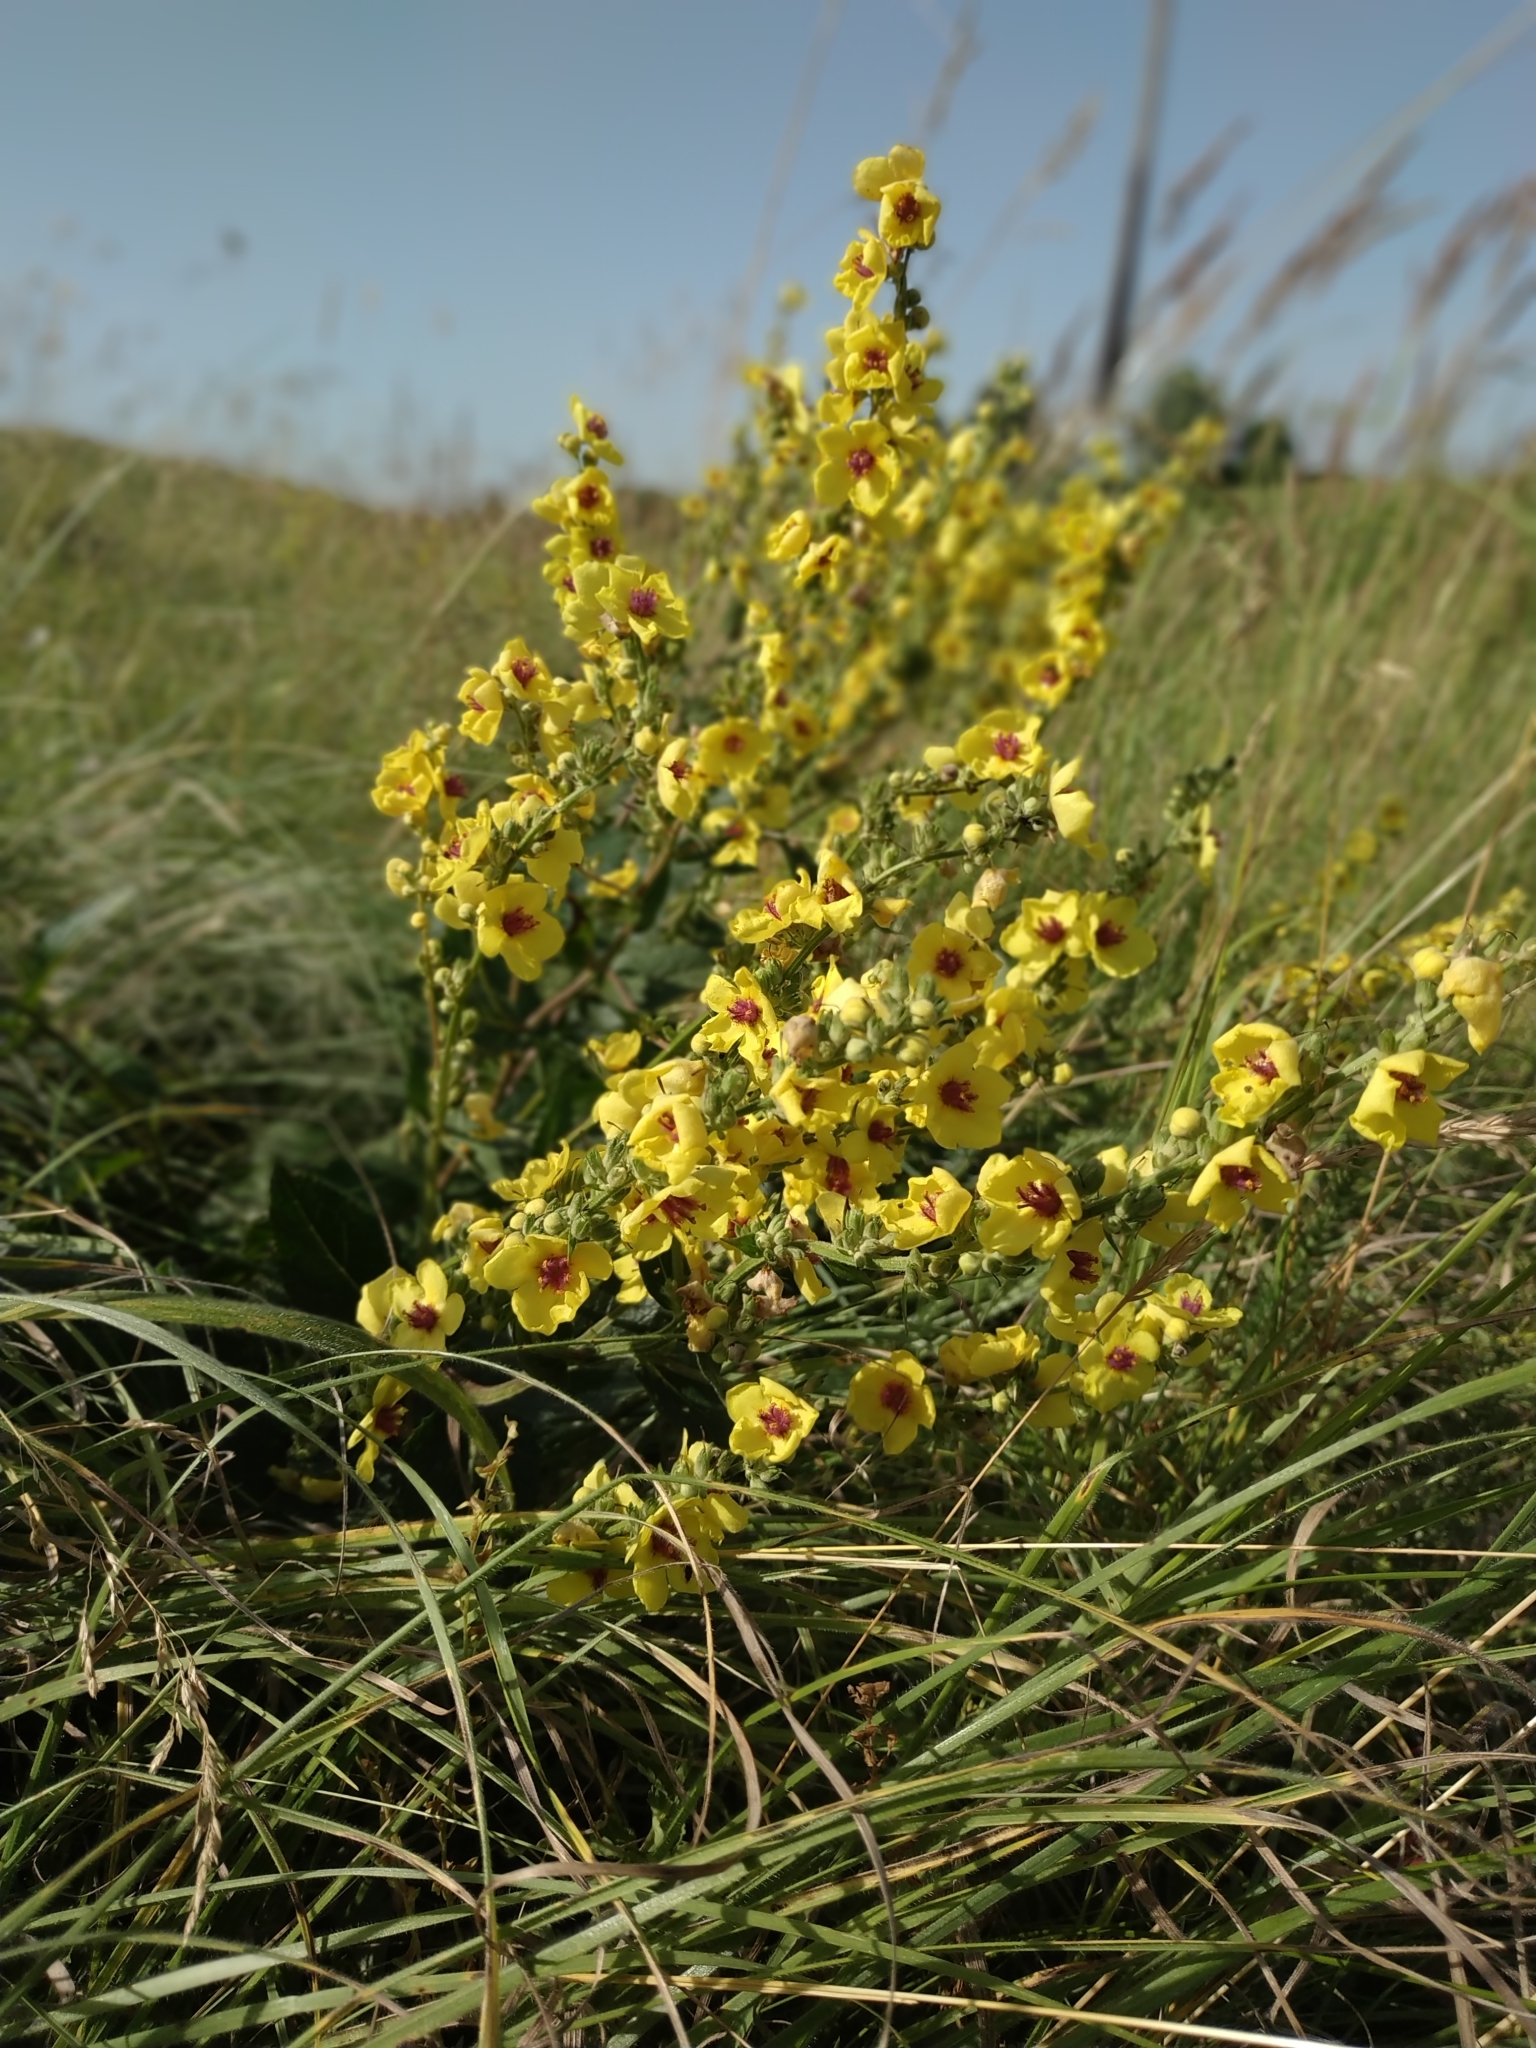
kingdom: Plantae
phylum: Tracheophyta
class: Magnoliopsida
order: Lamiales
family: Scrophulariaceae
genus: Verbascum
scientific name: Verbascum chaixii
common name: Nettle-leaved mullein
